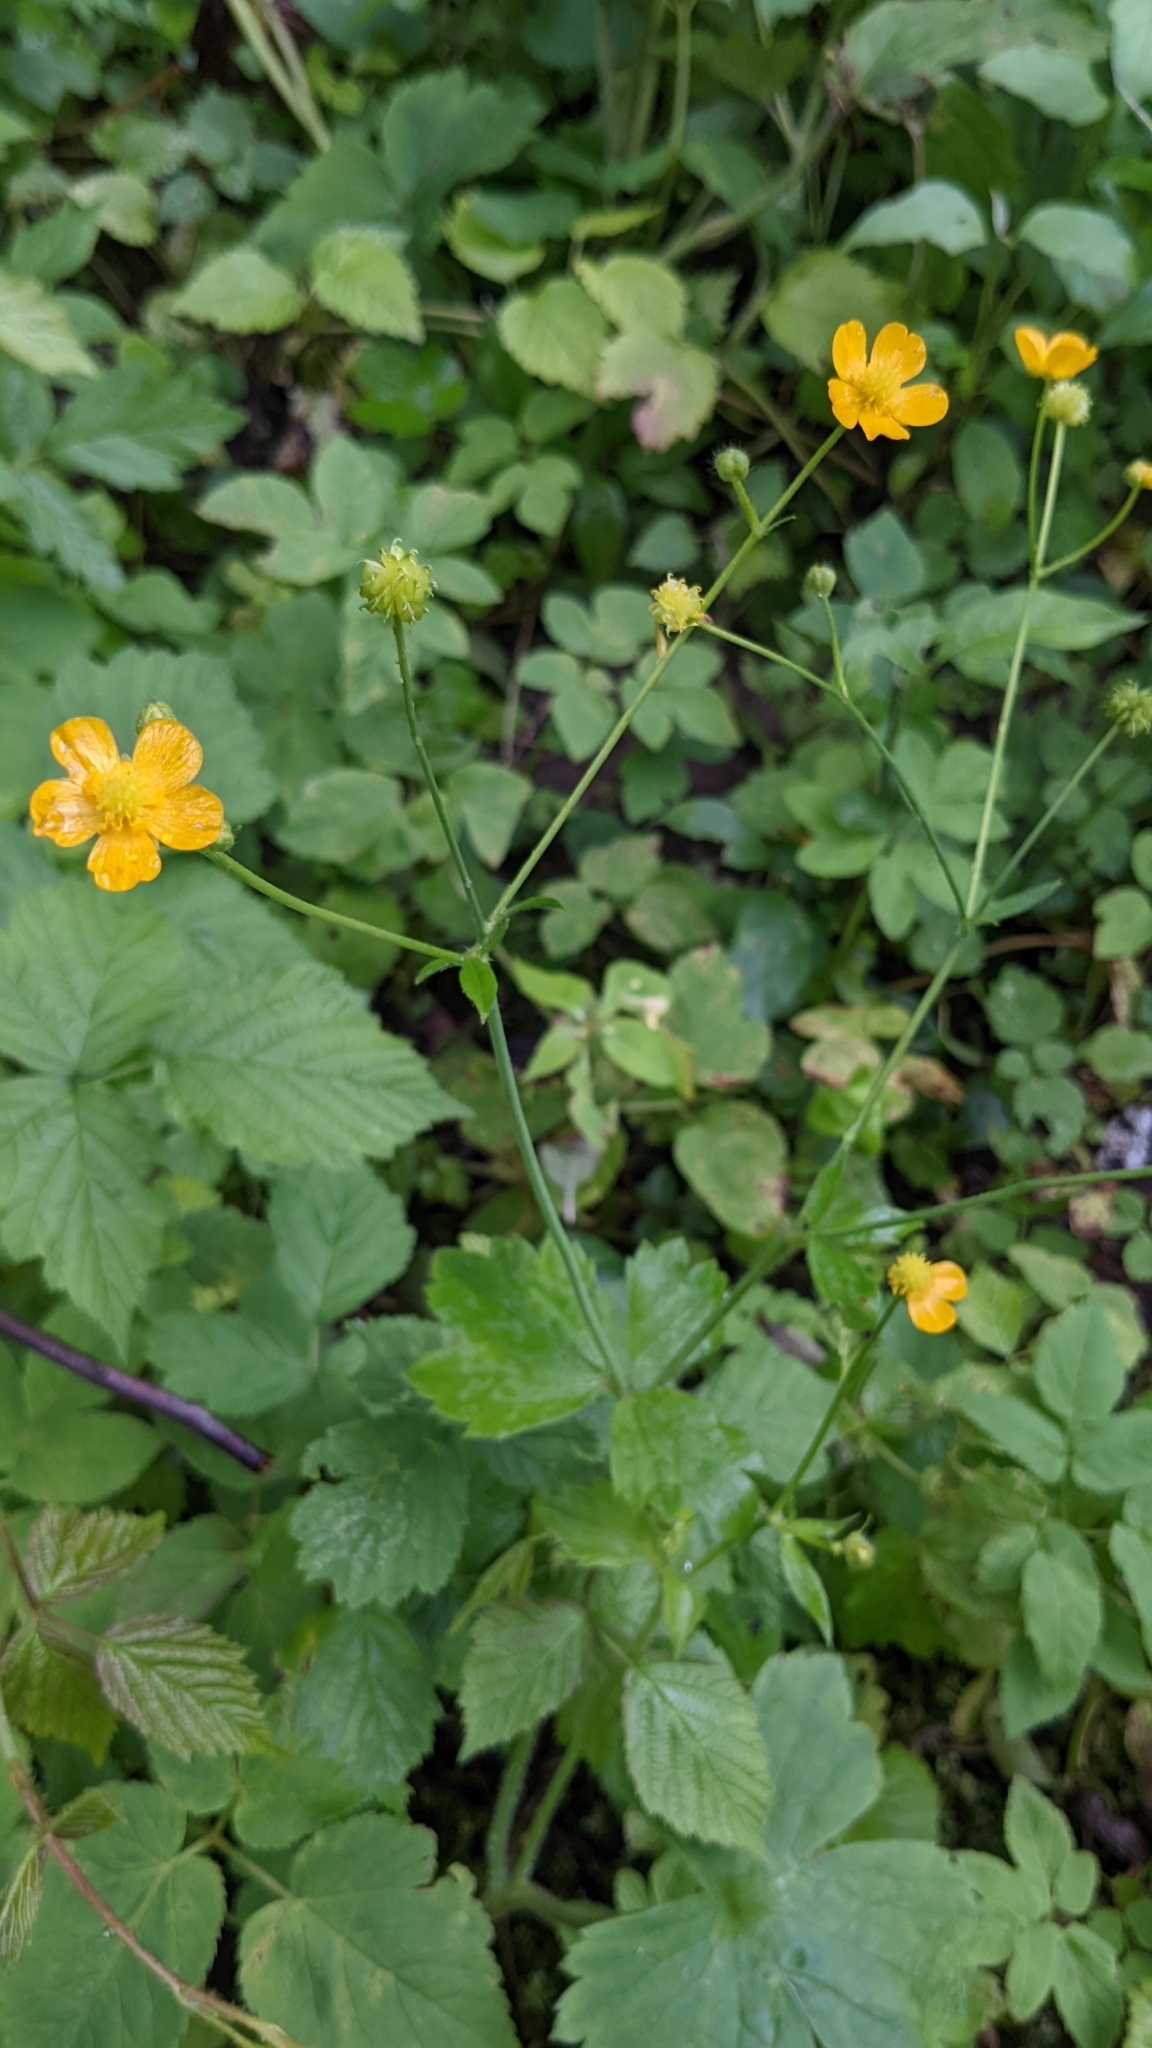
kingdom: Plantae
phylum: Tracheophyta
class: Magnoliopsida
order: Ranunculales
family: Ranunculaceae
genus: Ranunculus
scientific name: Ranunculus lanuginosus
